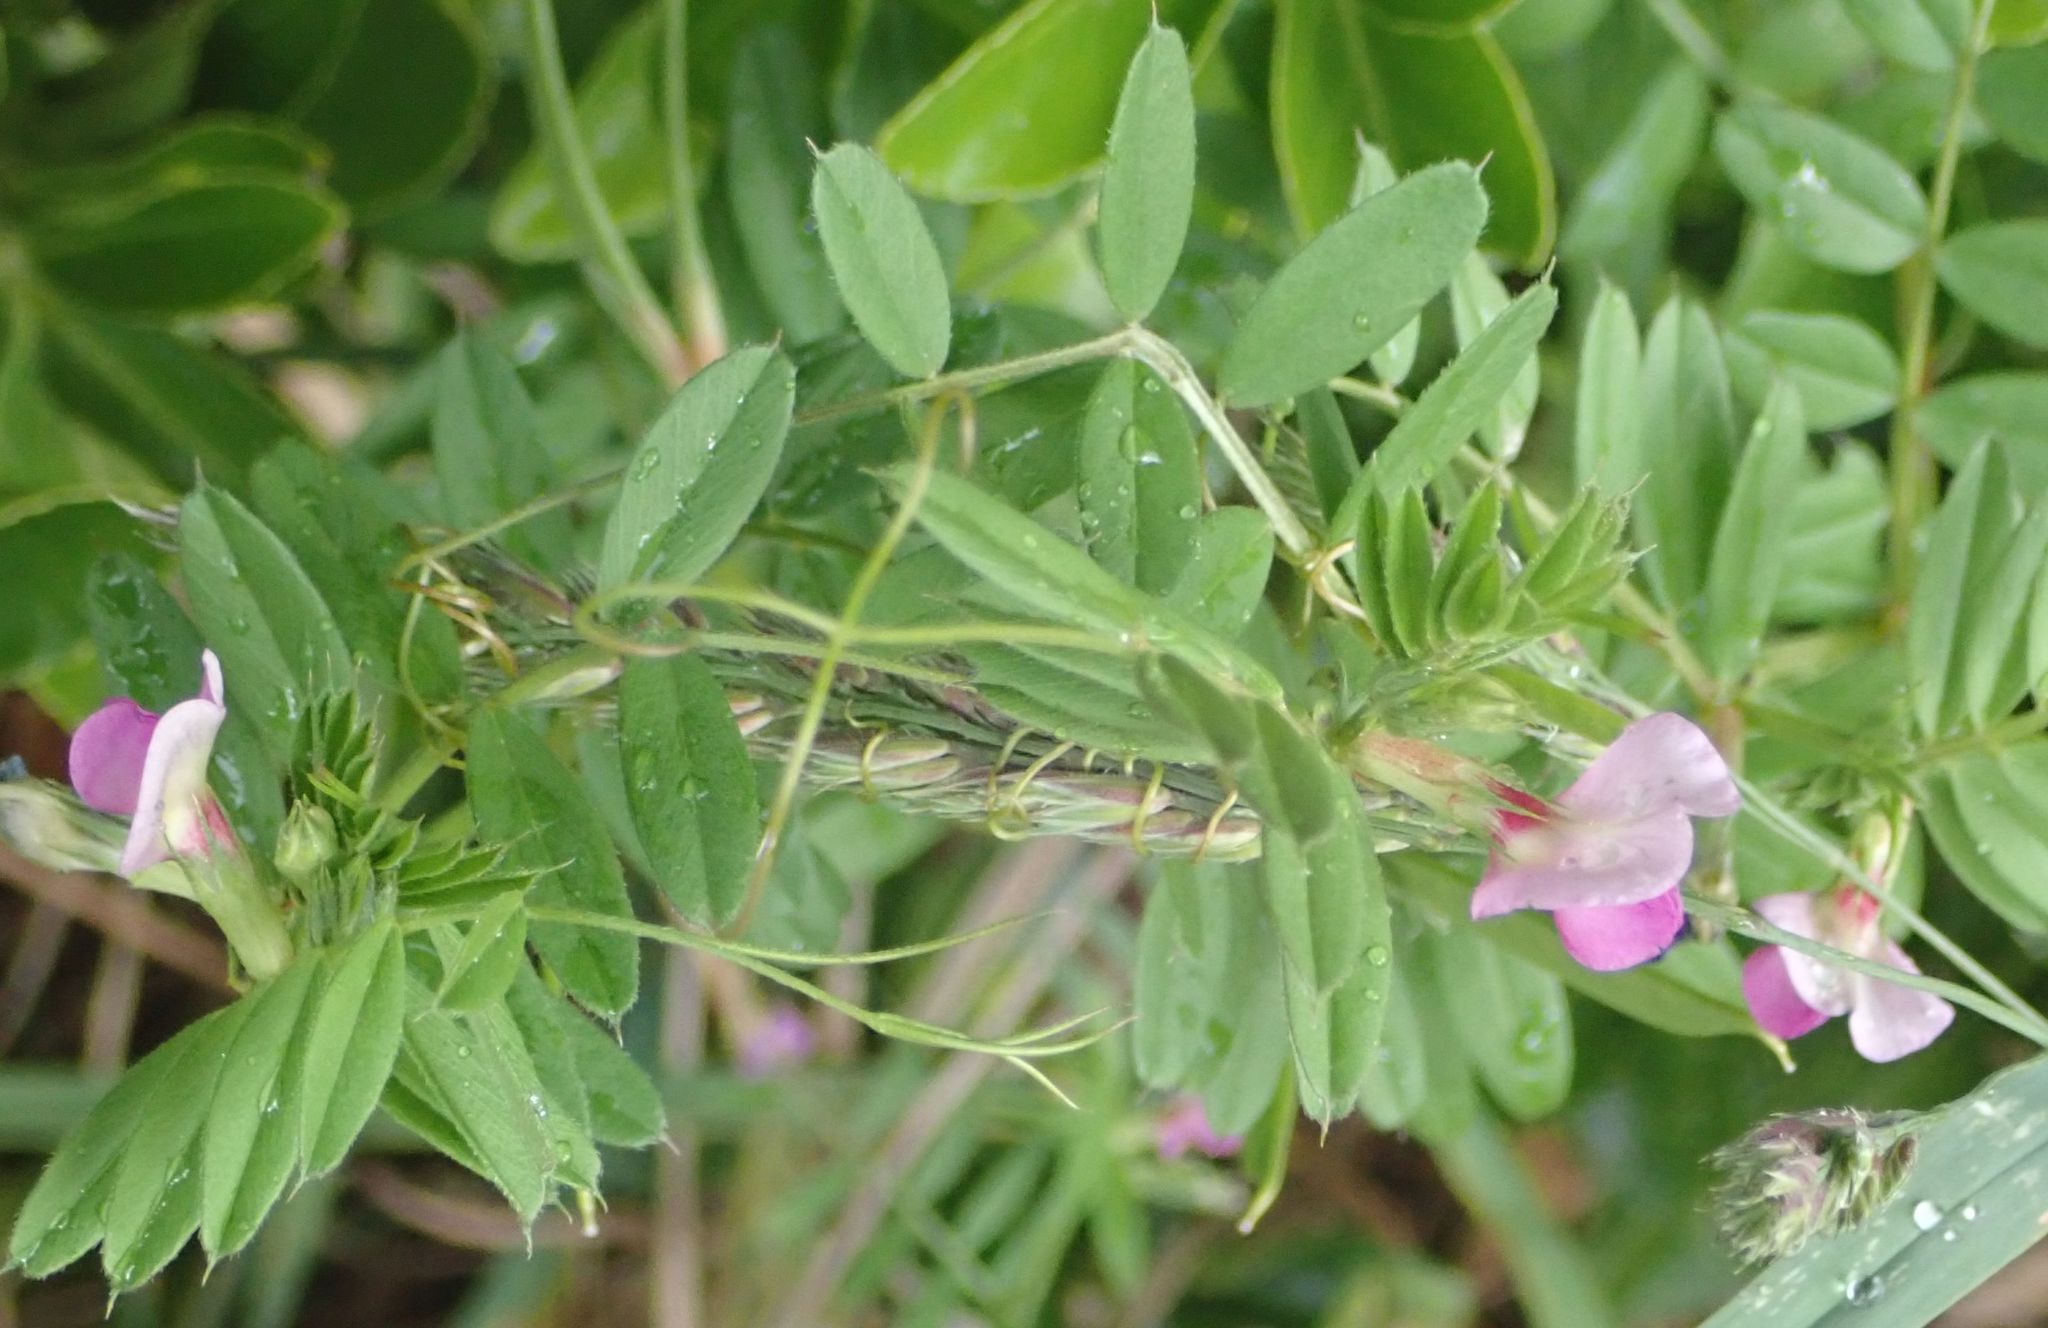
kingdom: Plantae
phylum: Tracheophyta
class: Magnoliopsida
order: Fabales
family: Fabaceae
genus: Vicia
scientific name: Vicia sativa
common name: Garden vetch
